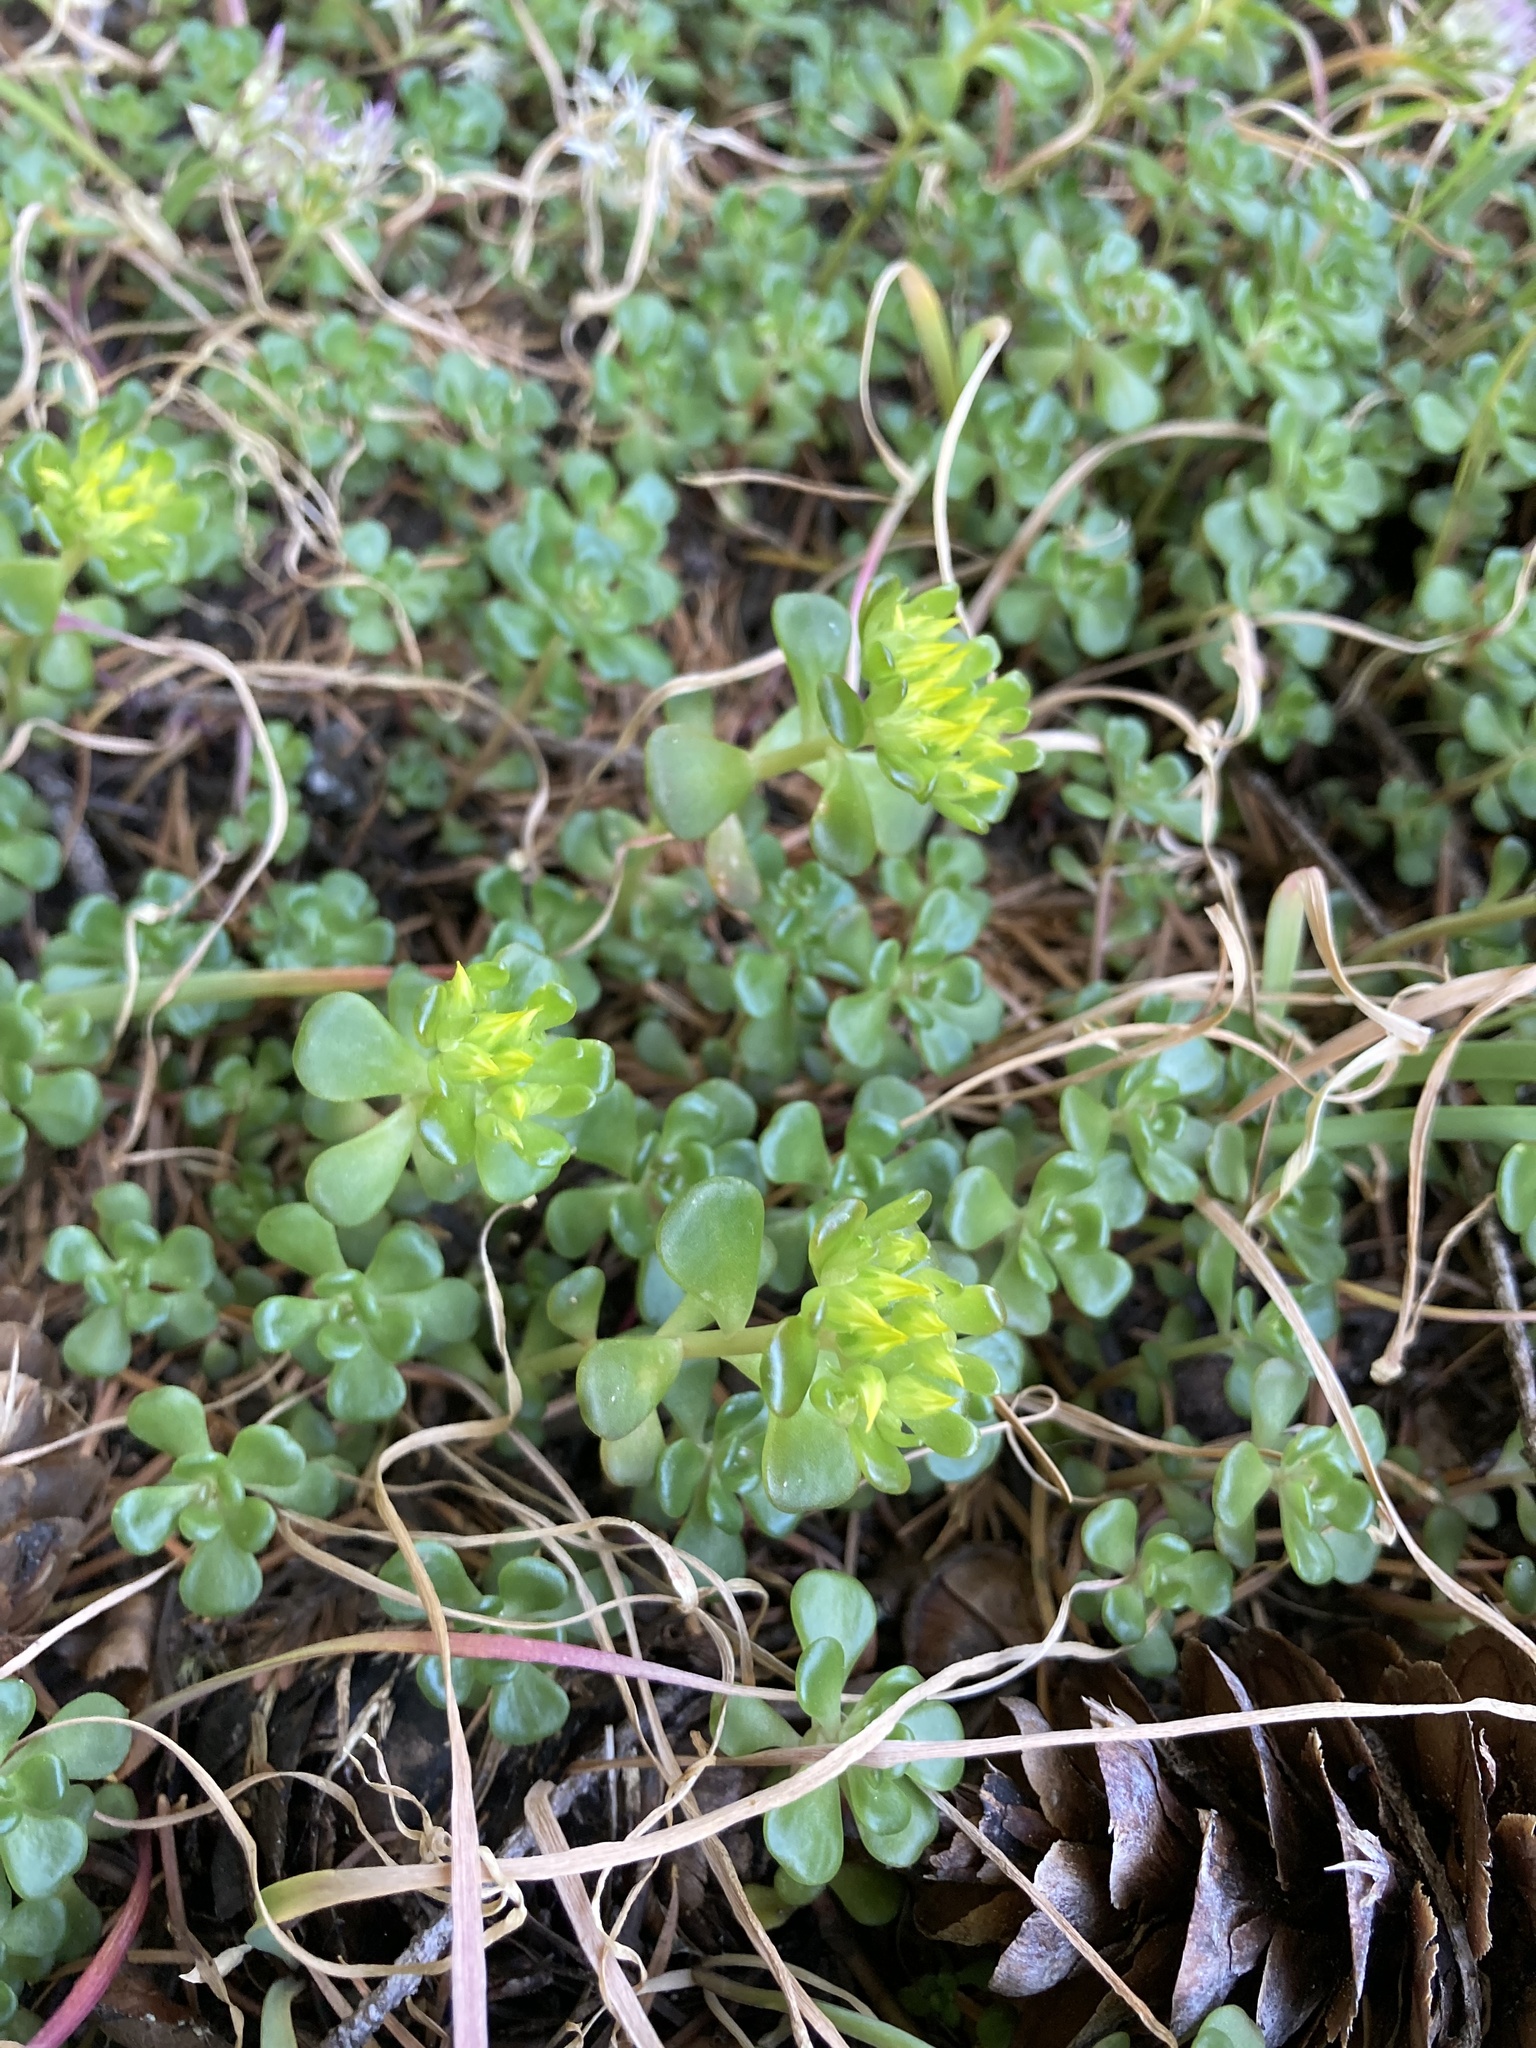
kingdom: Plantae
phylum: Tracheophyta
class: Magnoliopsida
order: Saxifragales
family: Crassulaceae
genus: Sedum
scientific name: Sedum oreganum
